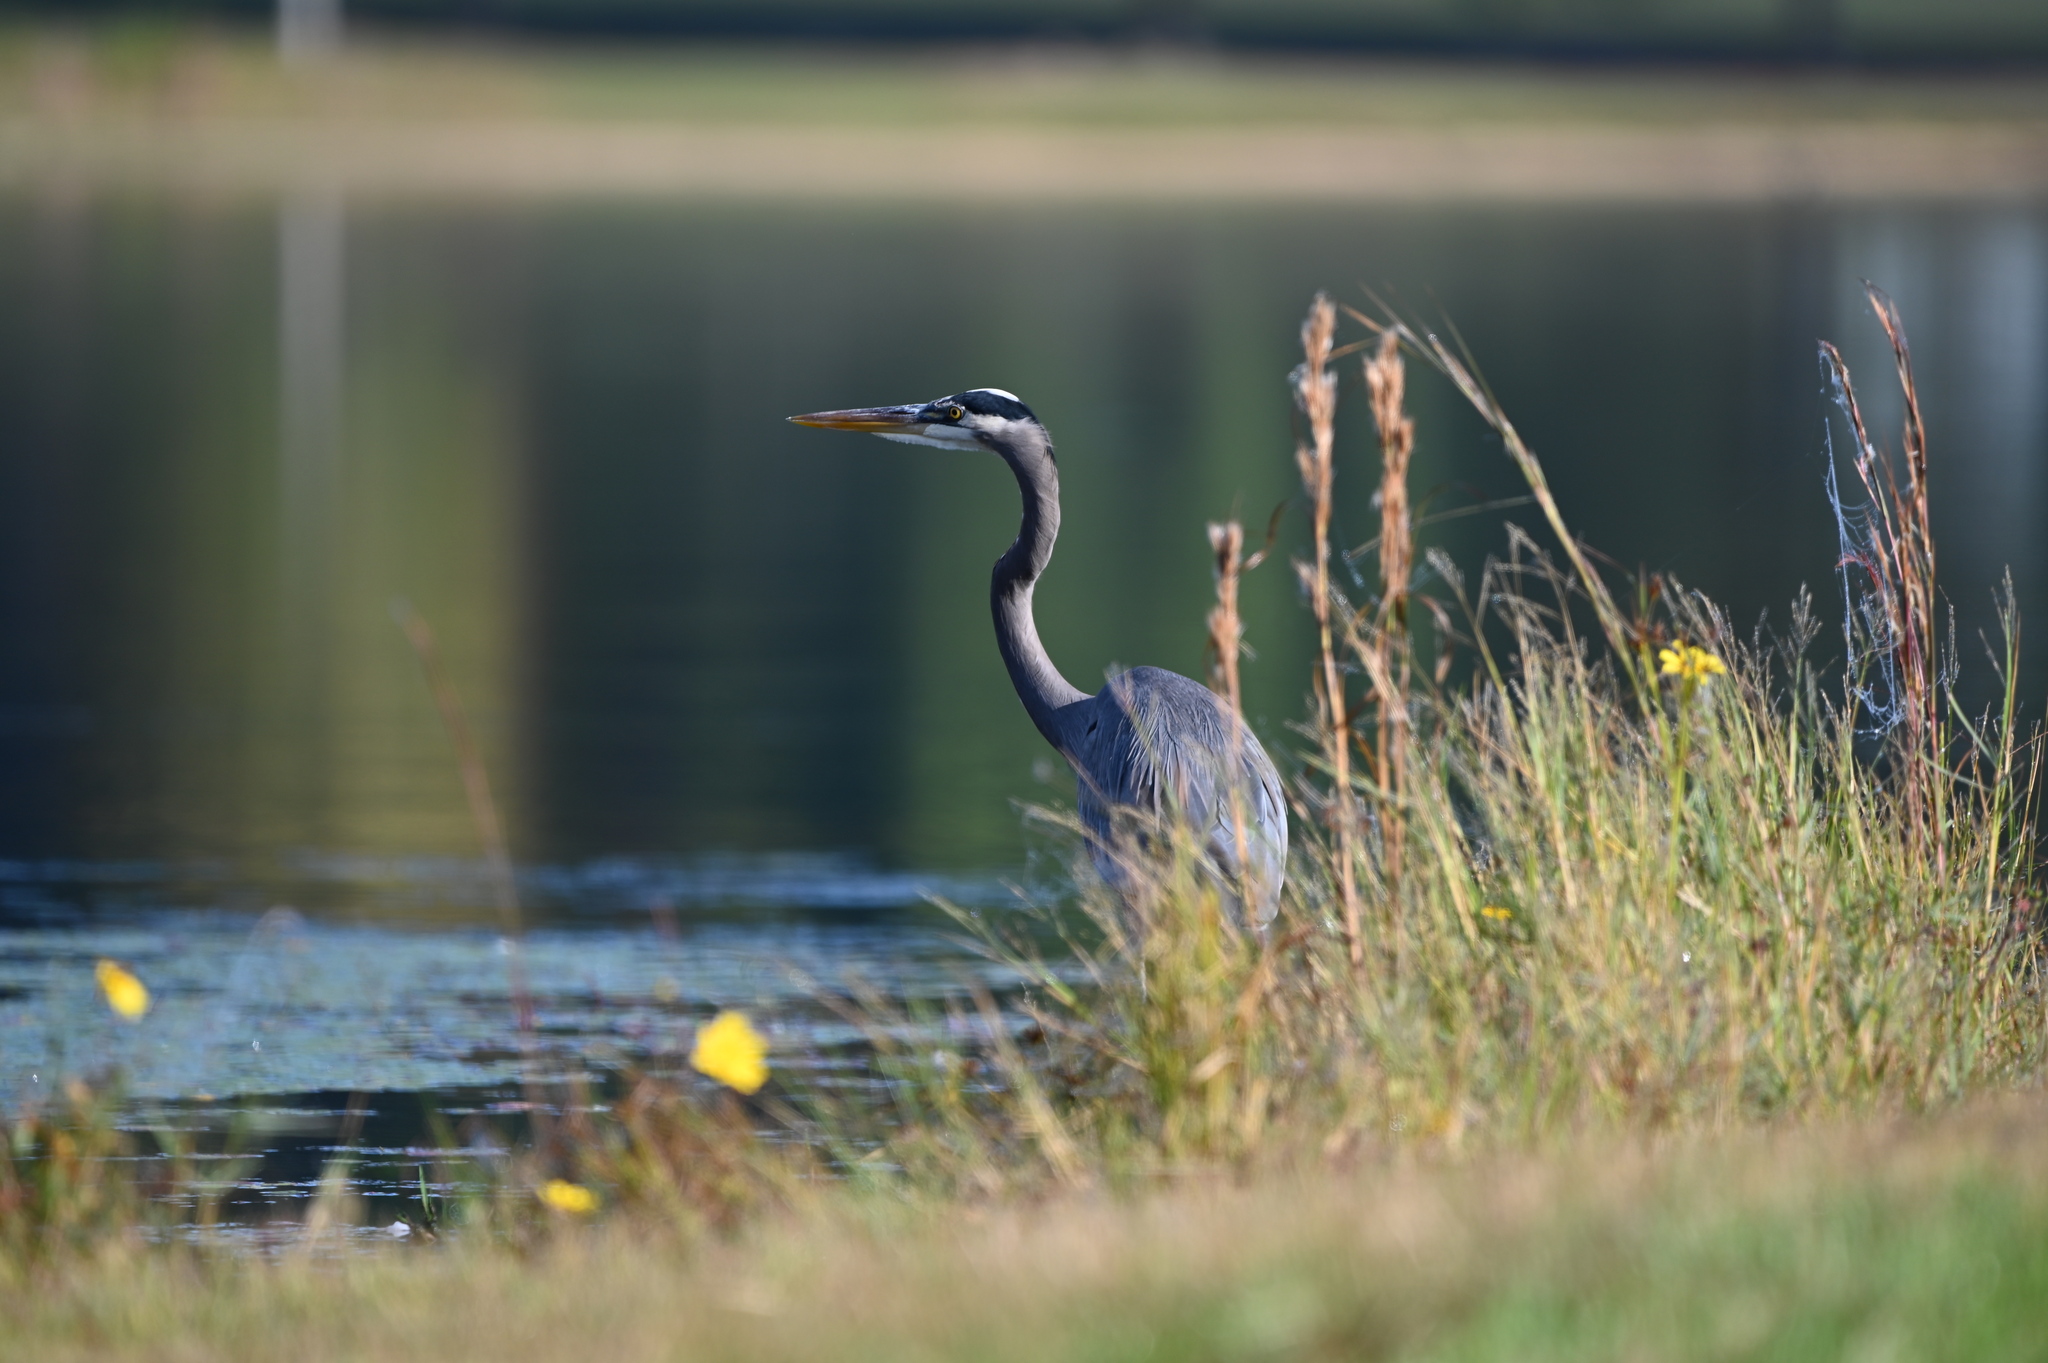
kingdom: Animalia
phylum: Chordata
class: Aves
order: Pelecaniformes
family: Ardeidae
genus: Ardea
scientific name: Ardea herodias
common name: Great blue heron
